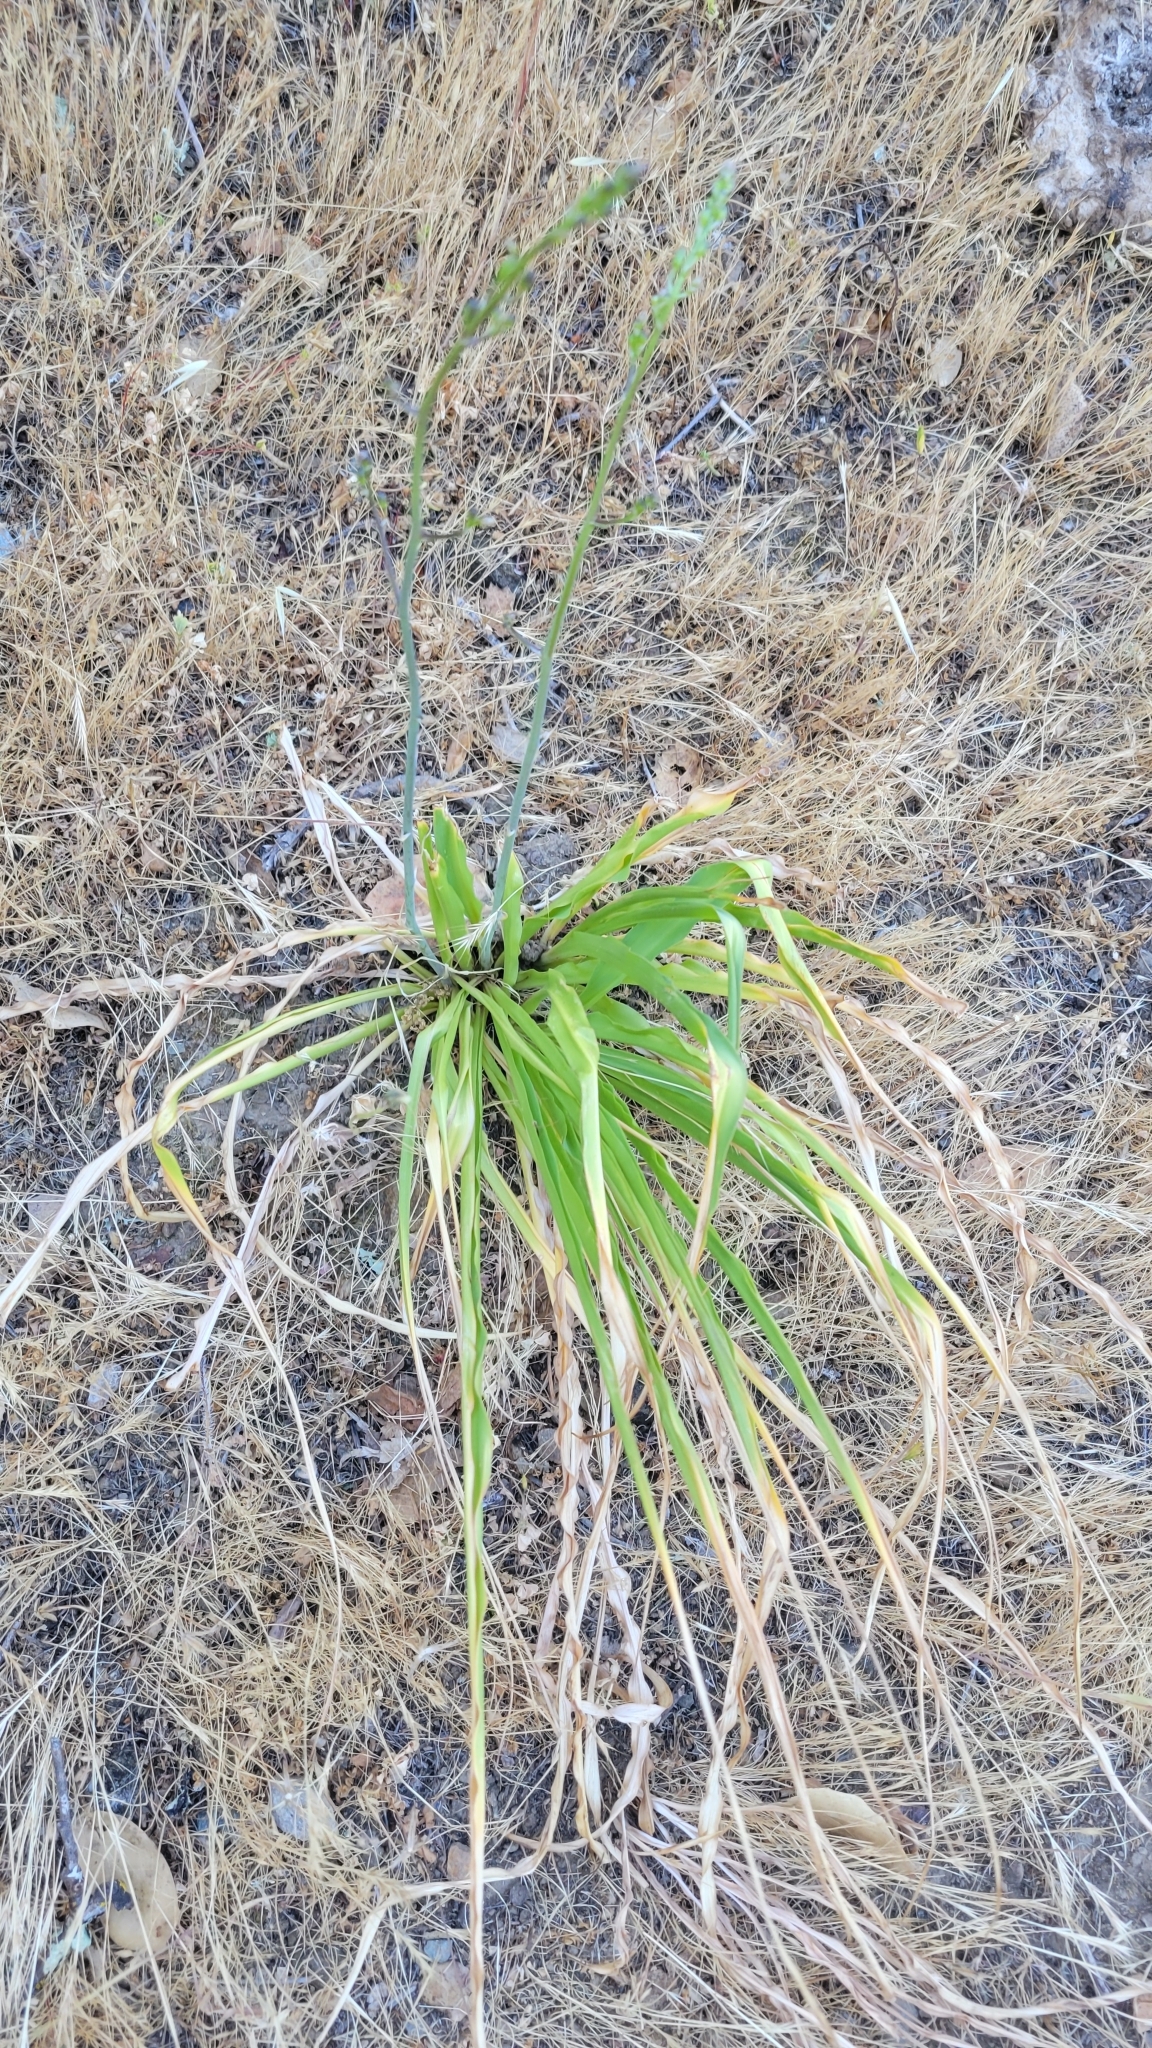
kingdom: Plantae
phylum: Tracheophyta
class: Liliopsida
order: Asparagales
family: Asparagaceae
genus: Chlorogalum
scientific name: Chlorogalum pomeridianum
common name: Amole
